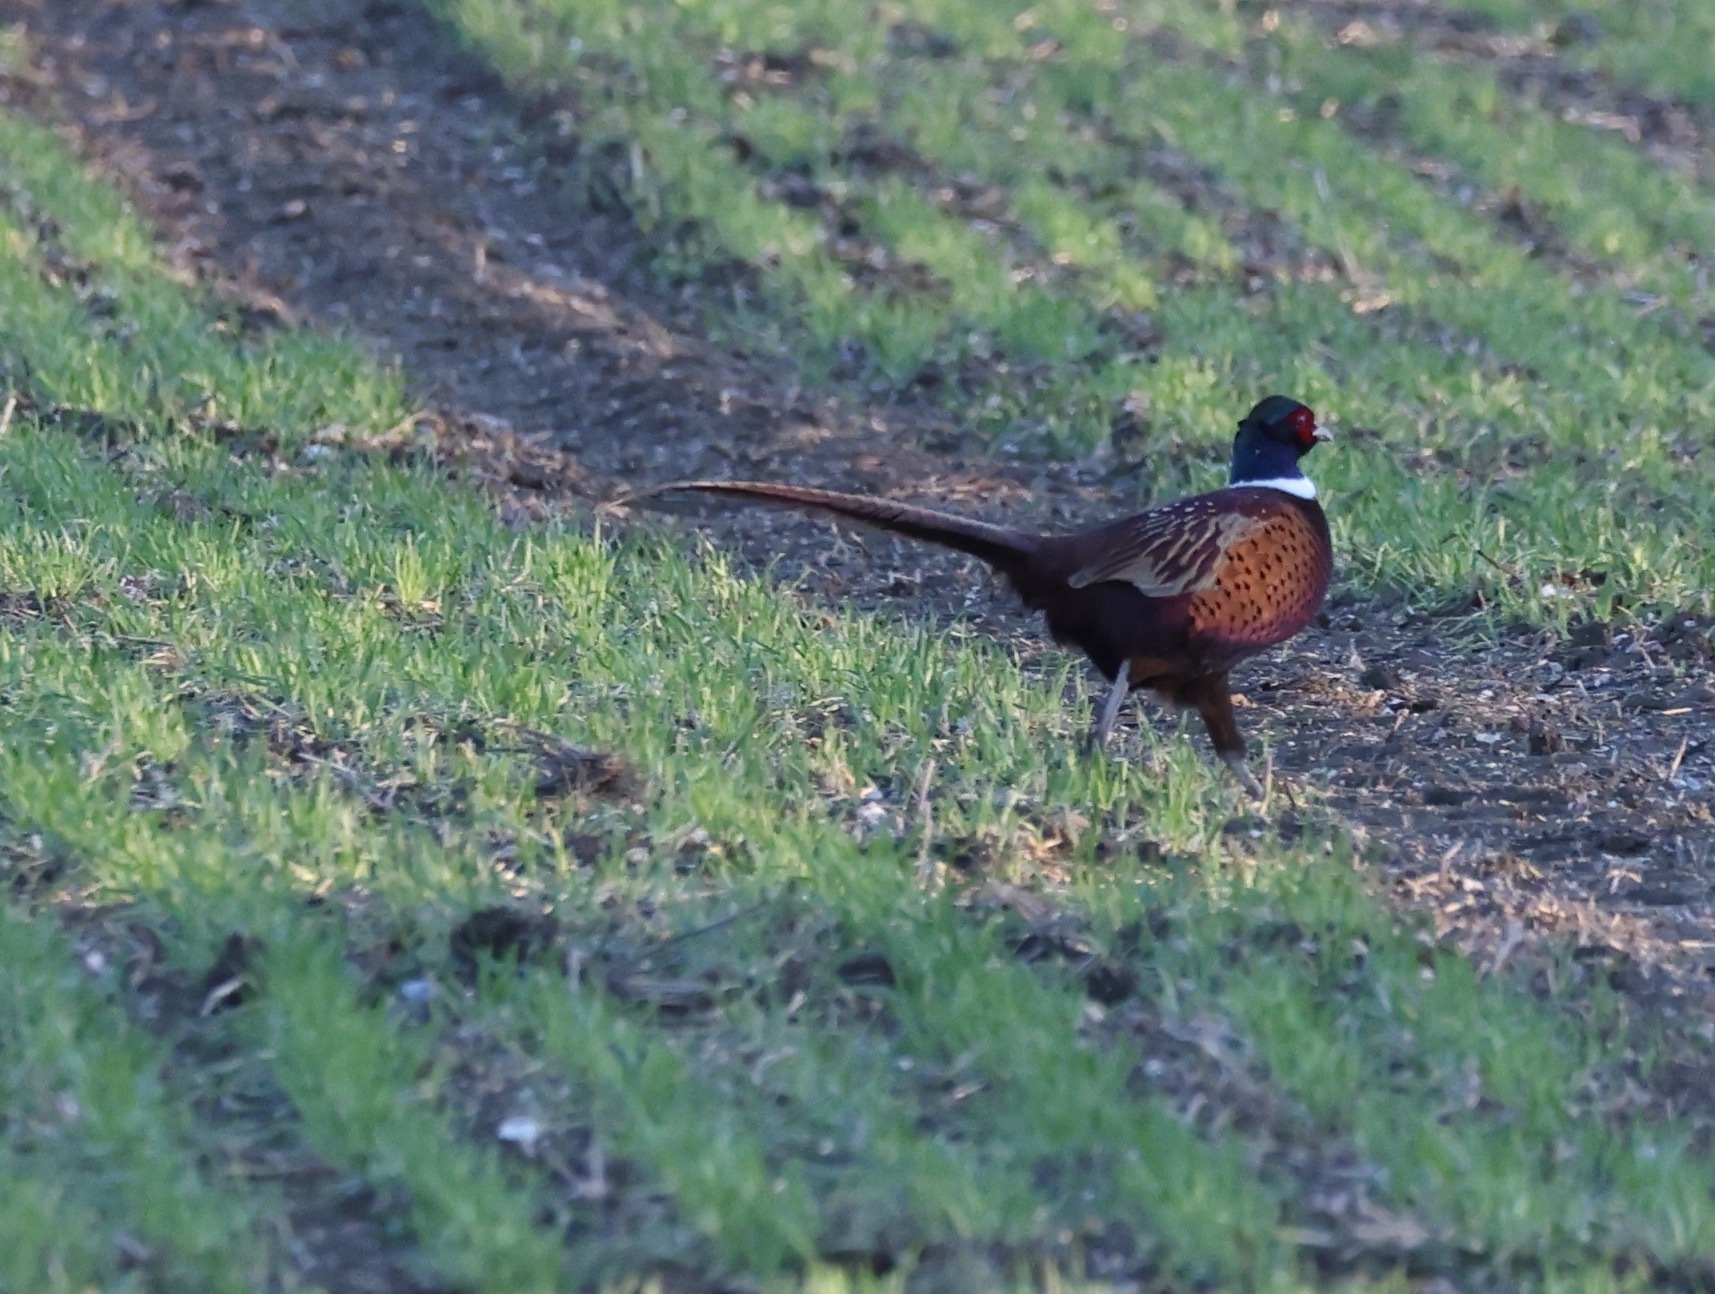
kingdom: Animalia
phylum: Chordata
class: Aves
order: Galliformes
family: Phasianidae
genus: Phasianus
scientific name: Phasianus colchicus
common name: Common pheasant
